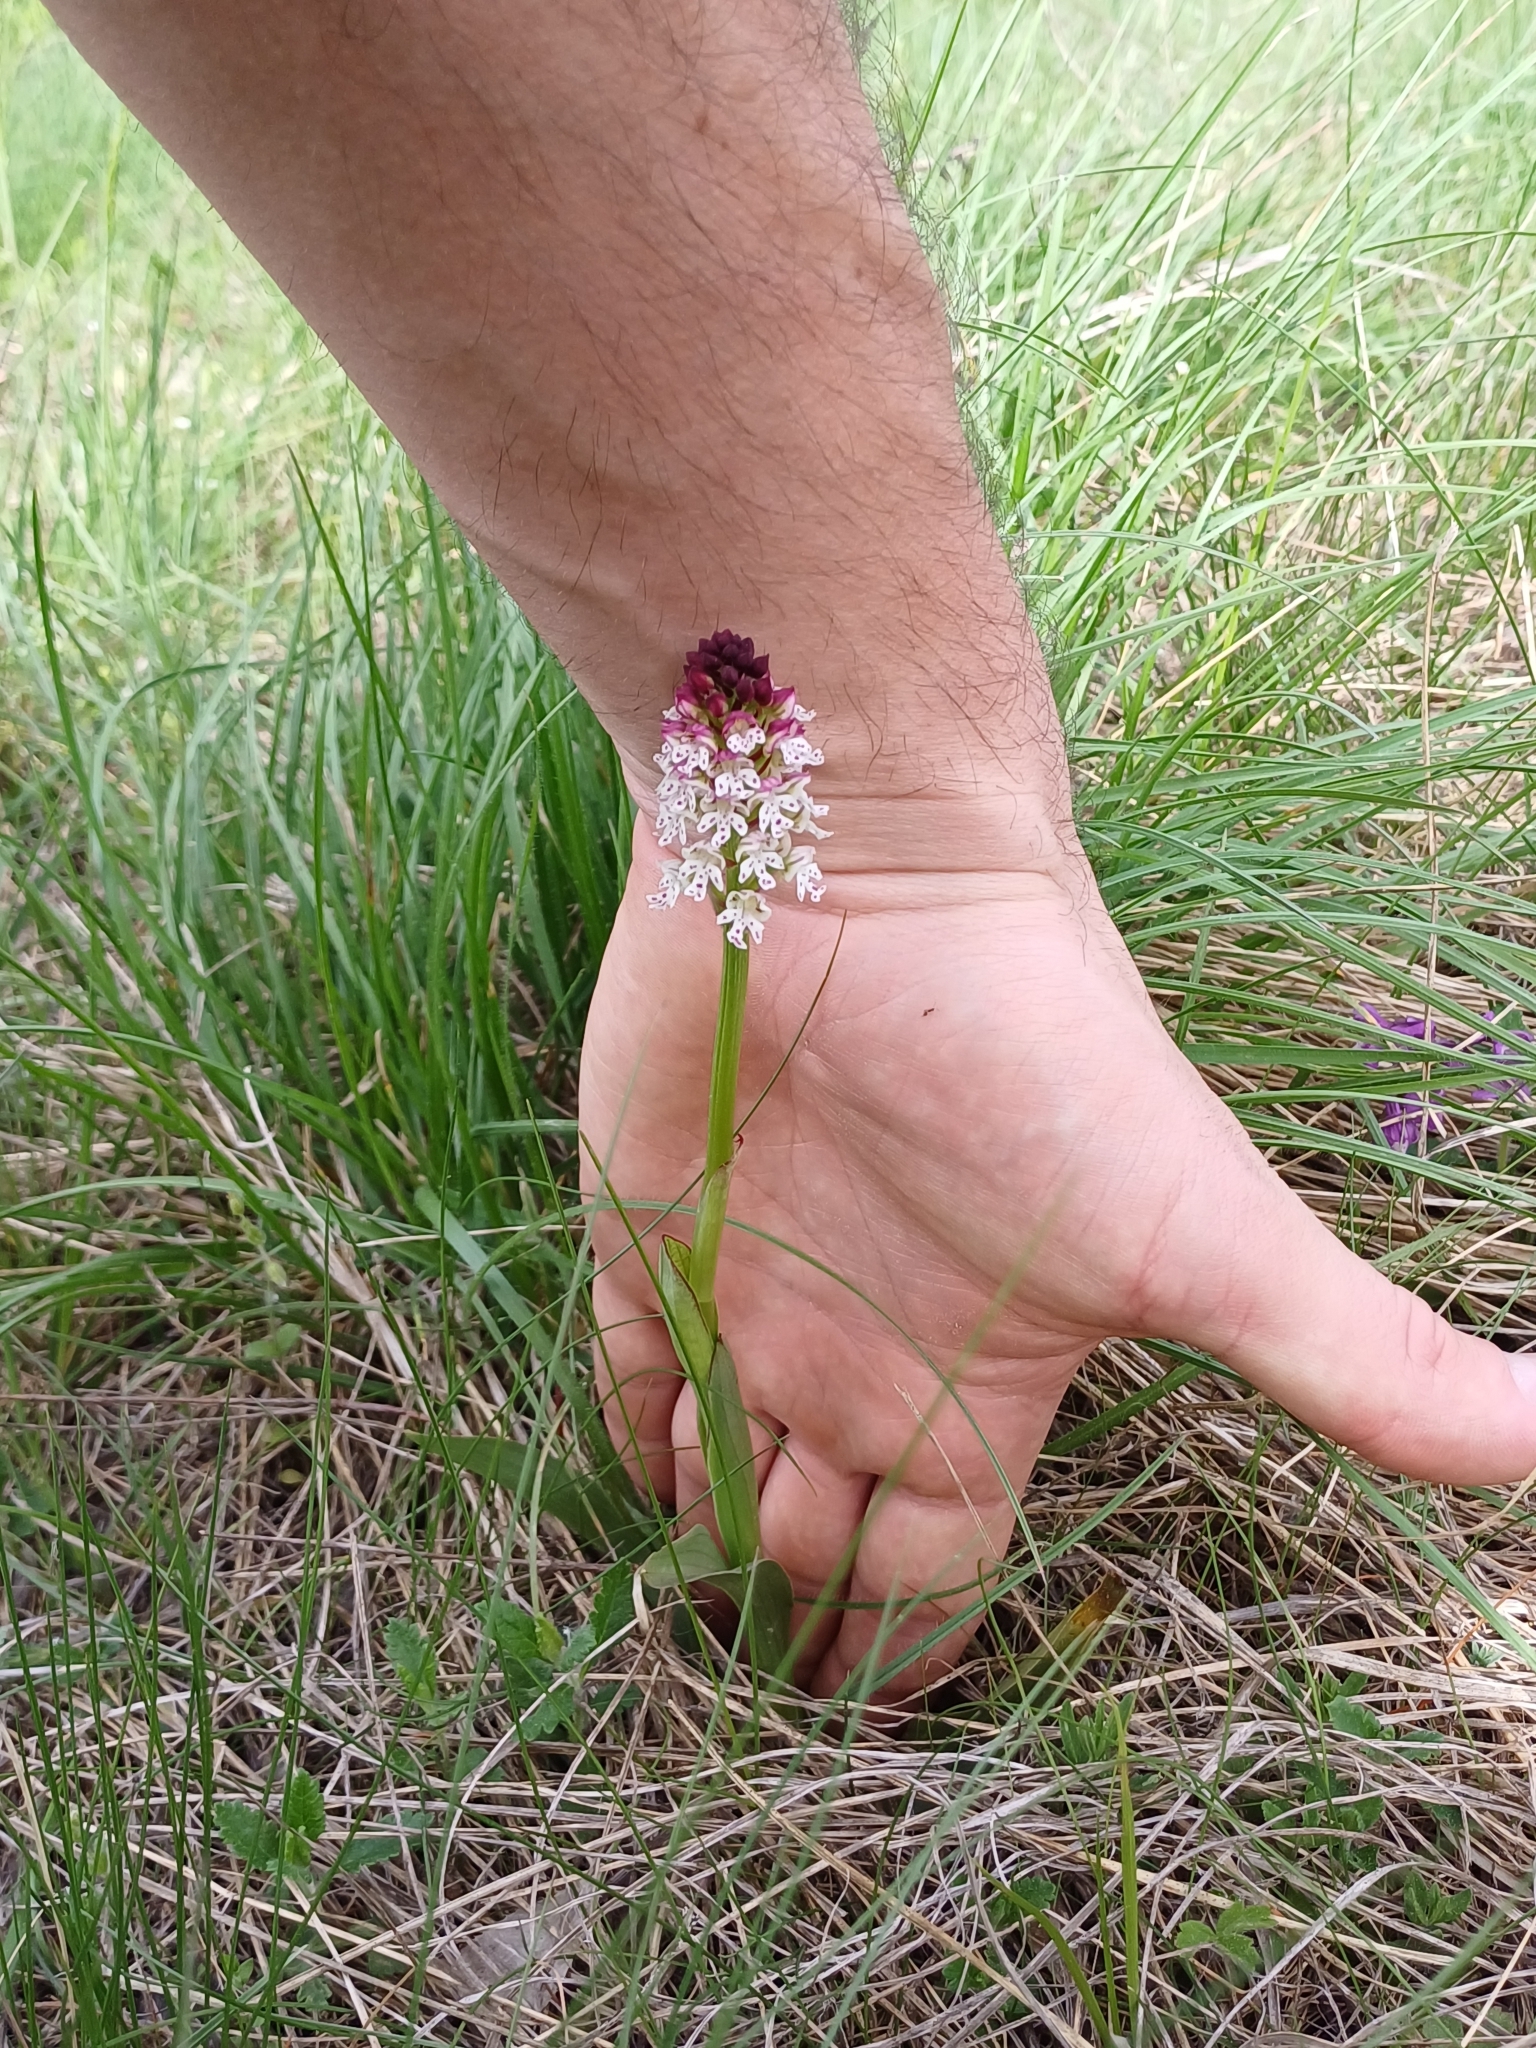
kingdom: Plantae
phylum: Tracheophyta
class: Liliopsida
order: Asparagales
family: Orchidaceae
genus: Neotinea
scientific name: Neotinea ustulata
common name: Burnt orchid
